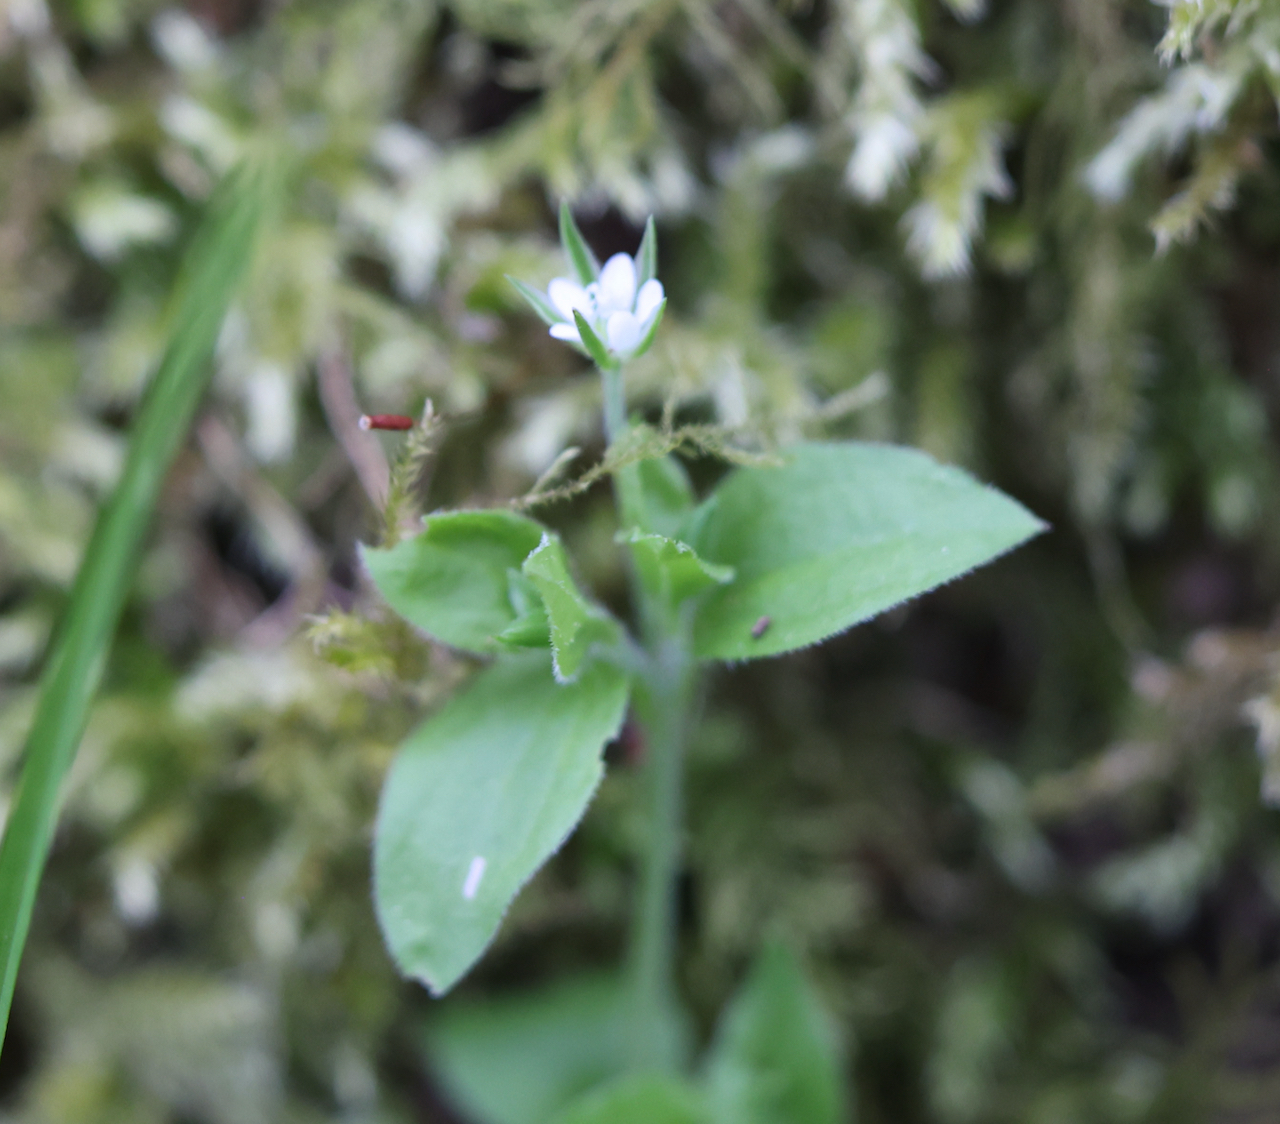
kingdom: Plantae
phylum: Tracheophyta
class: Magnoliopsida
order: Caryophyllales
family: Caryophyllaceae
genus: Moehringia
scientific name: Moehringia trinervia
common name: Three-nerved sandwort
